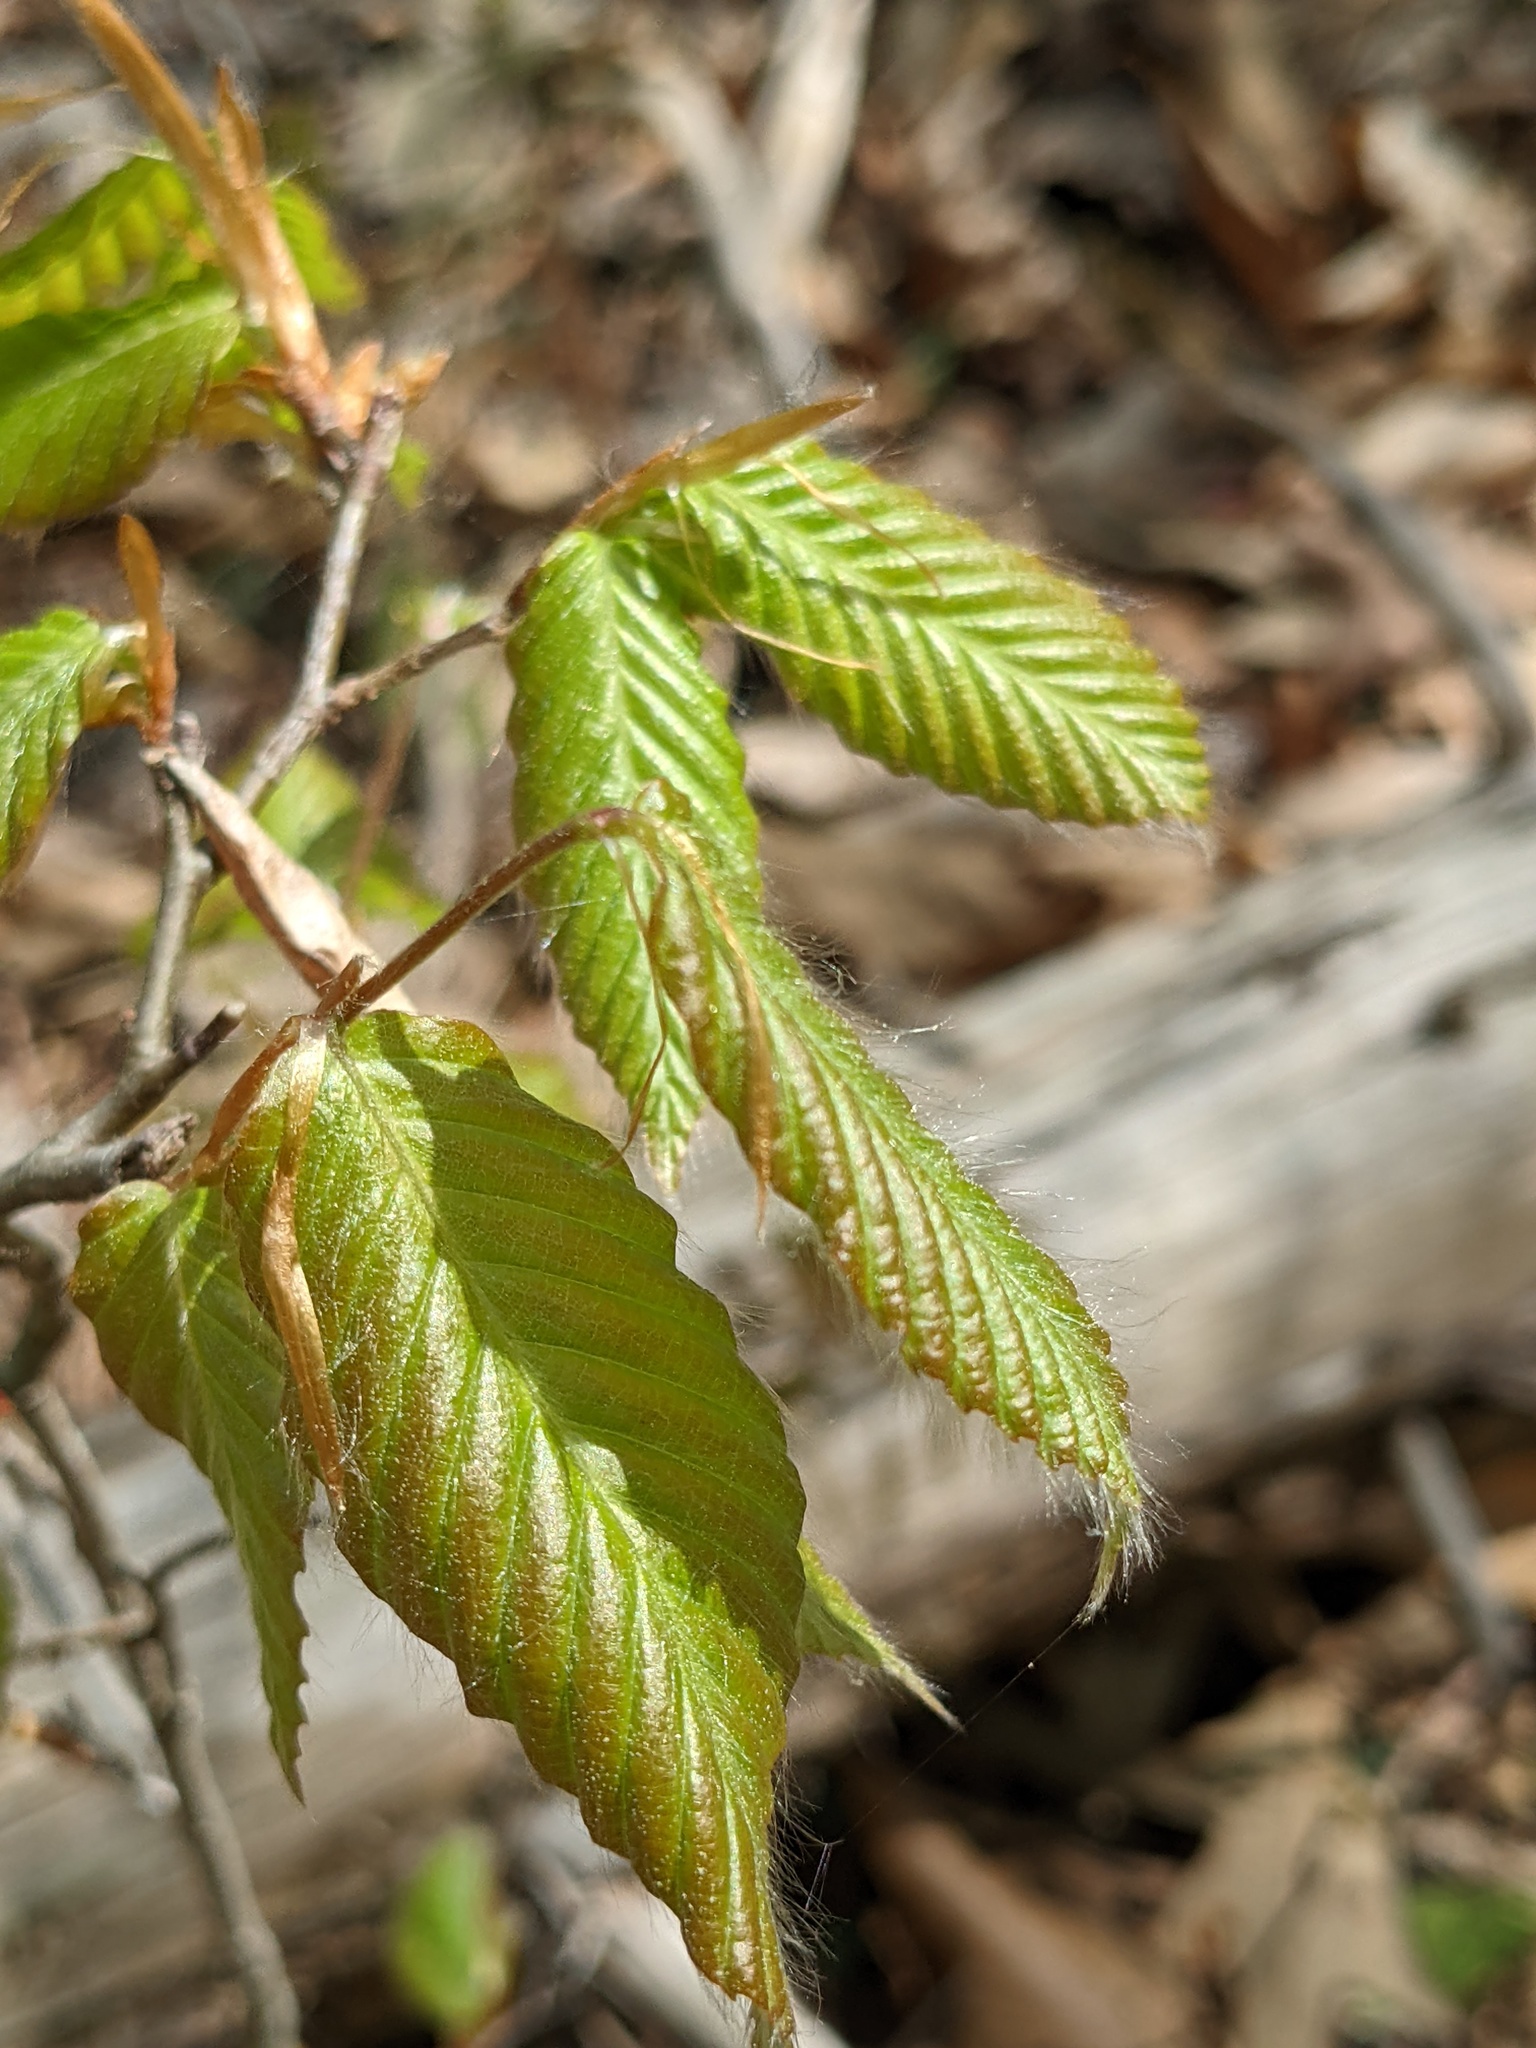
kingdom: Plantae
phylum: Tracheophyta
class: Magnoliopsida
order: Fagales
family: Fagaceae
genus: Fagus
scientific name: Fagus grandifolia
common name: American beech
